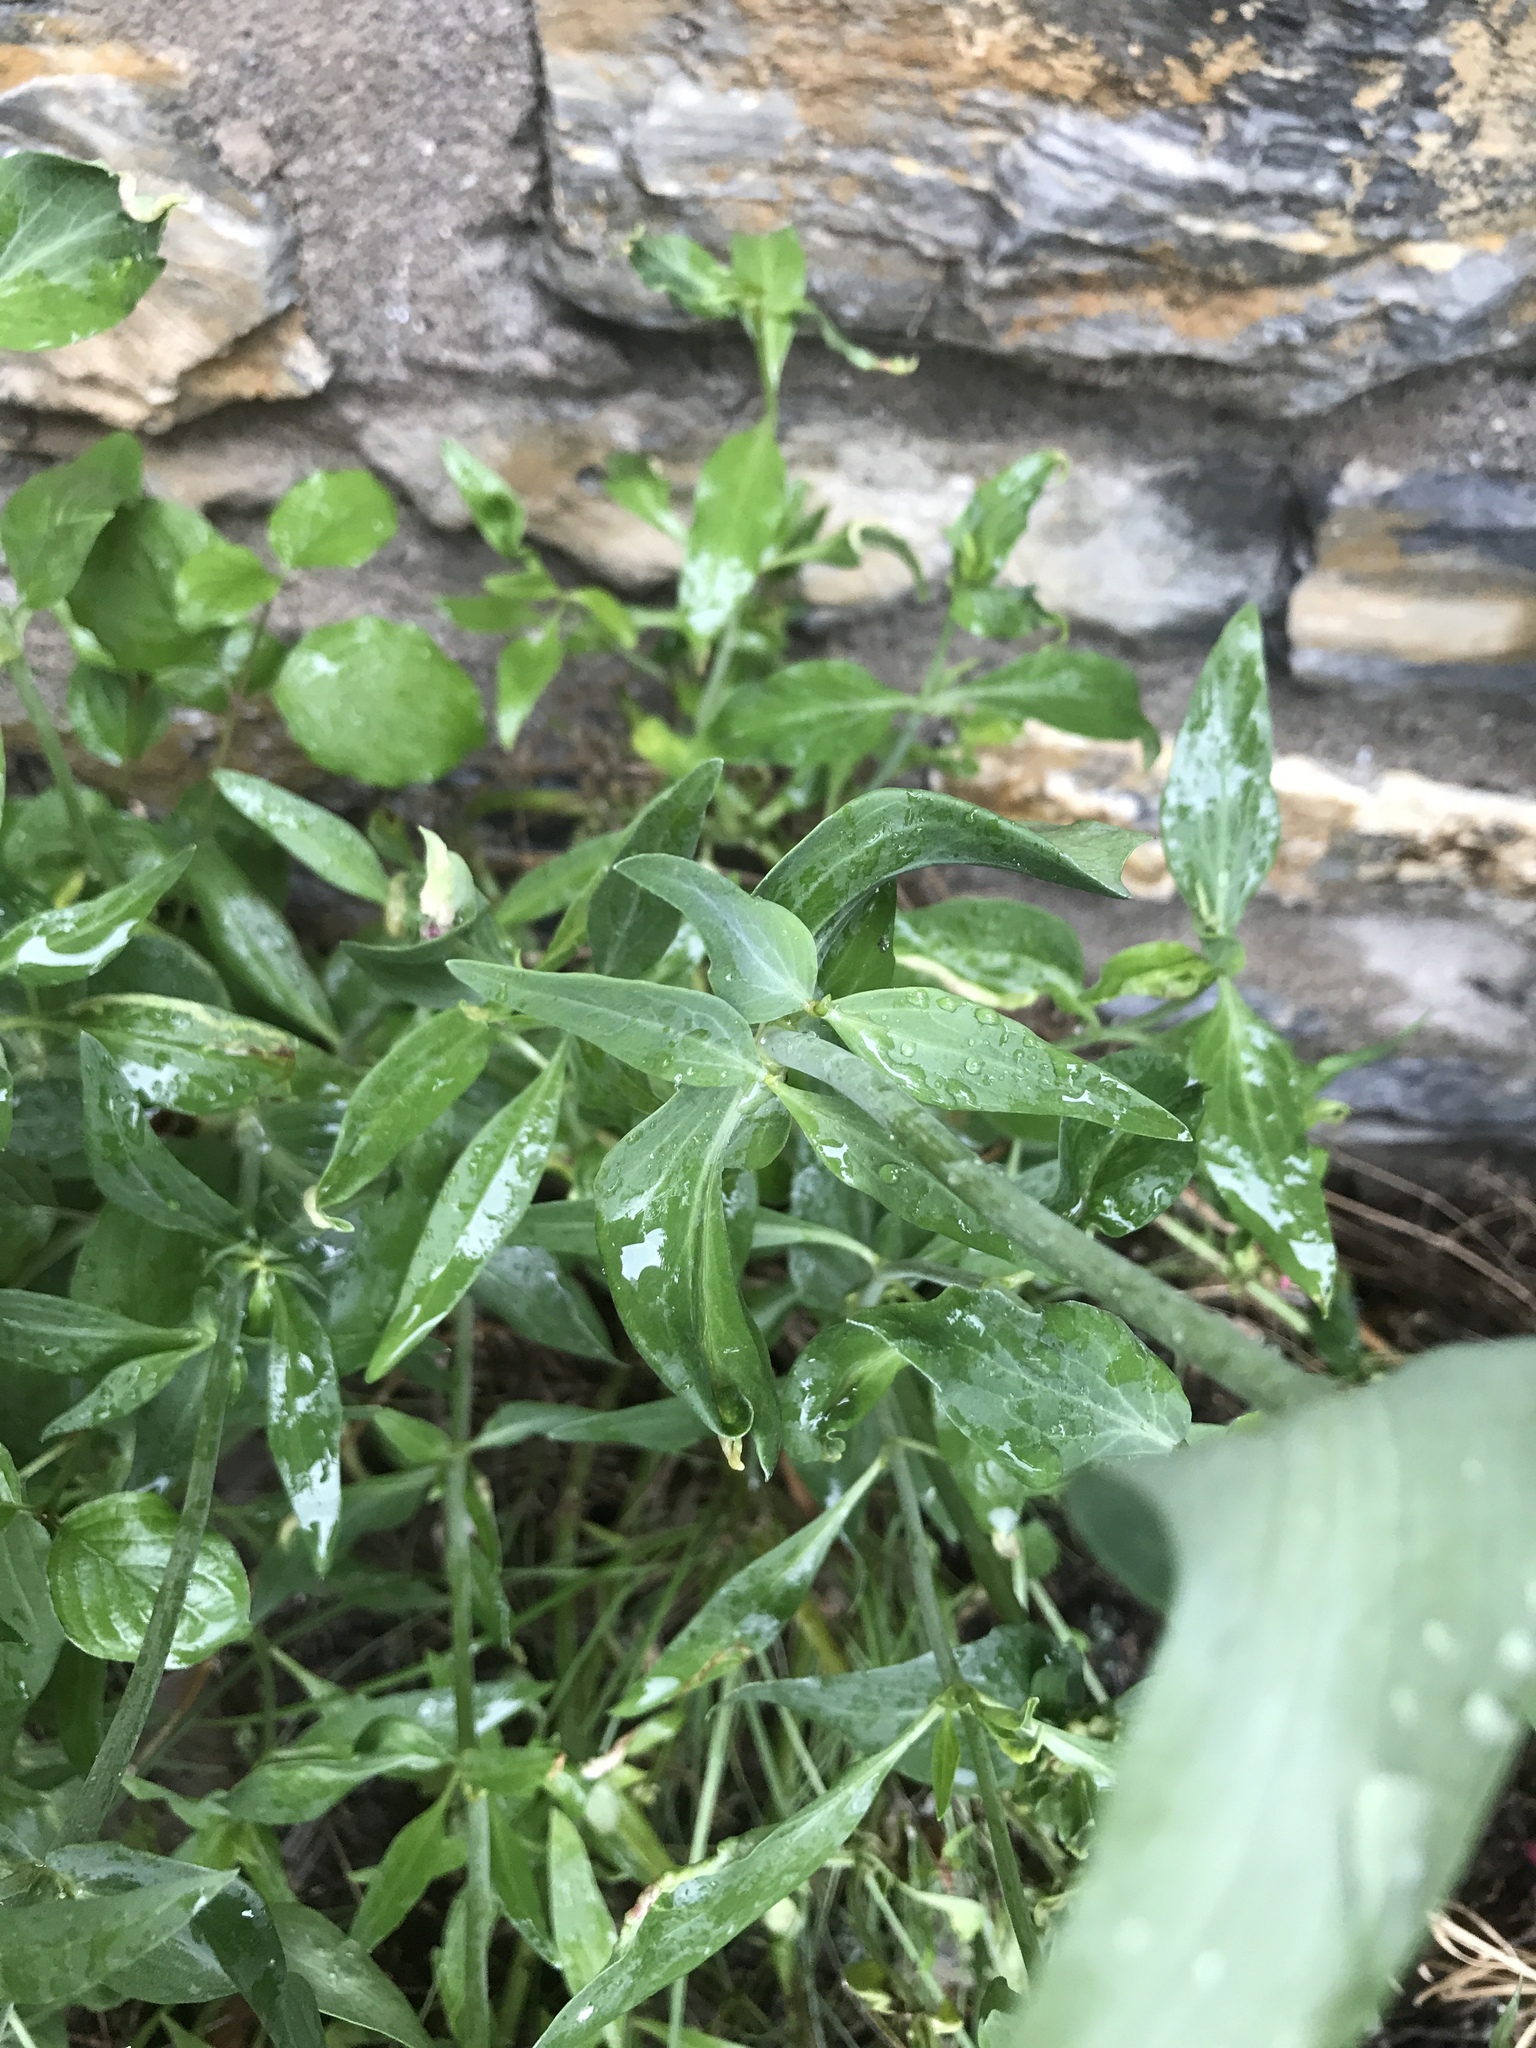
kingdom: Plantae
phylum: Tracheophyta
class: Magnoliopsida
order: Dipsacales
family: Caprifoliaceae
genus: Centranthus
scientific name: Centranthus ruber
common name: Red valerian
